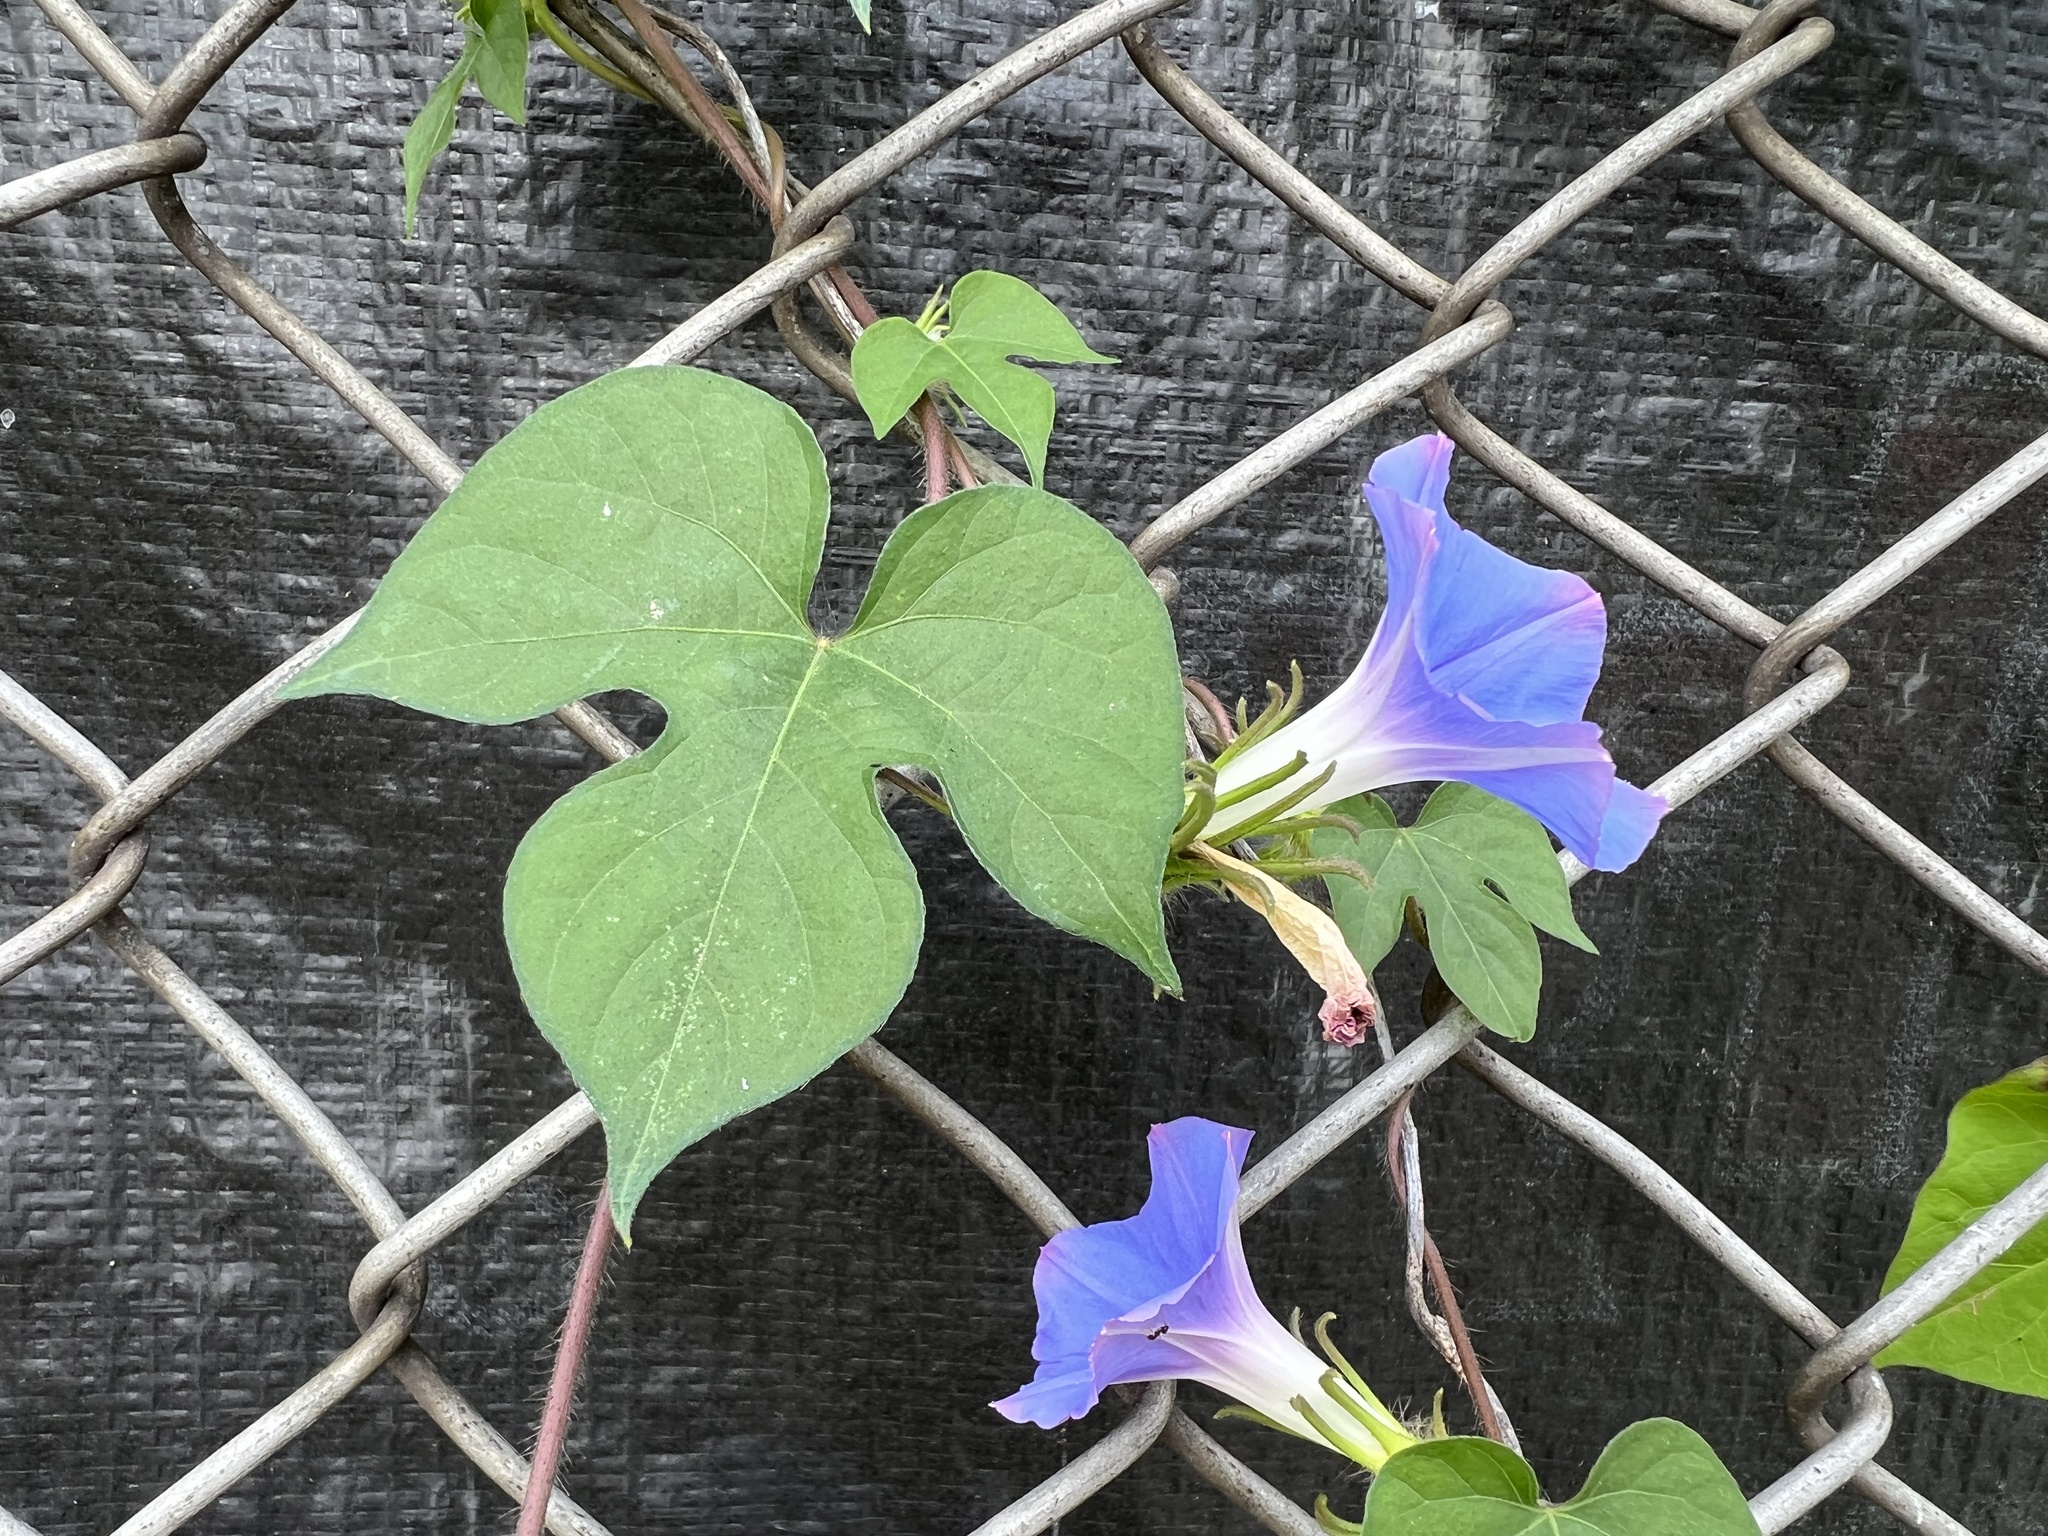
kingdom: Plantae
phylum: Tracheophyta
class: Magnoliopsida
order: Solanales
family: Convolvulaceae
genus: Ipomoea
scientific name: Ipomoea hederacea
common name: Ivy-leaved morning-glory
